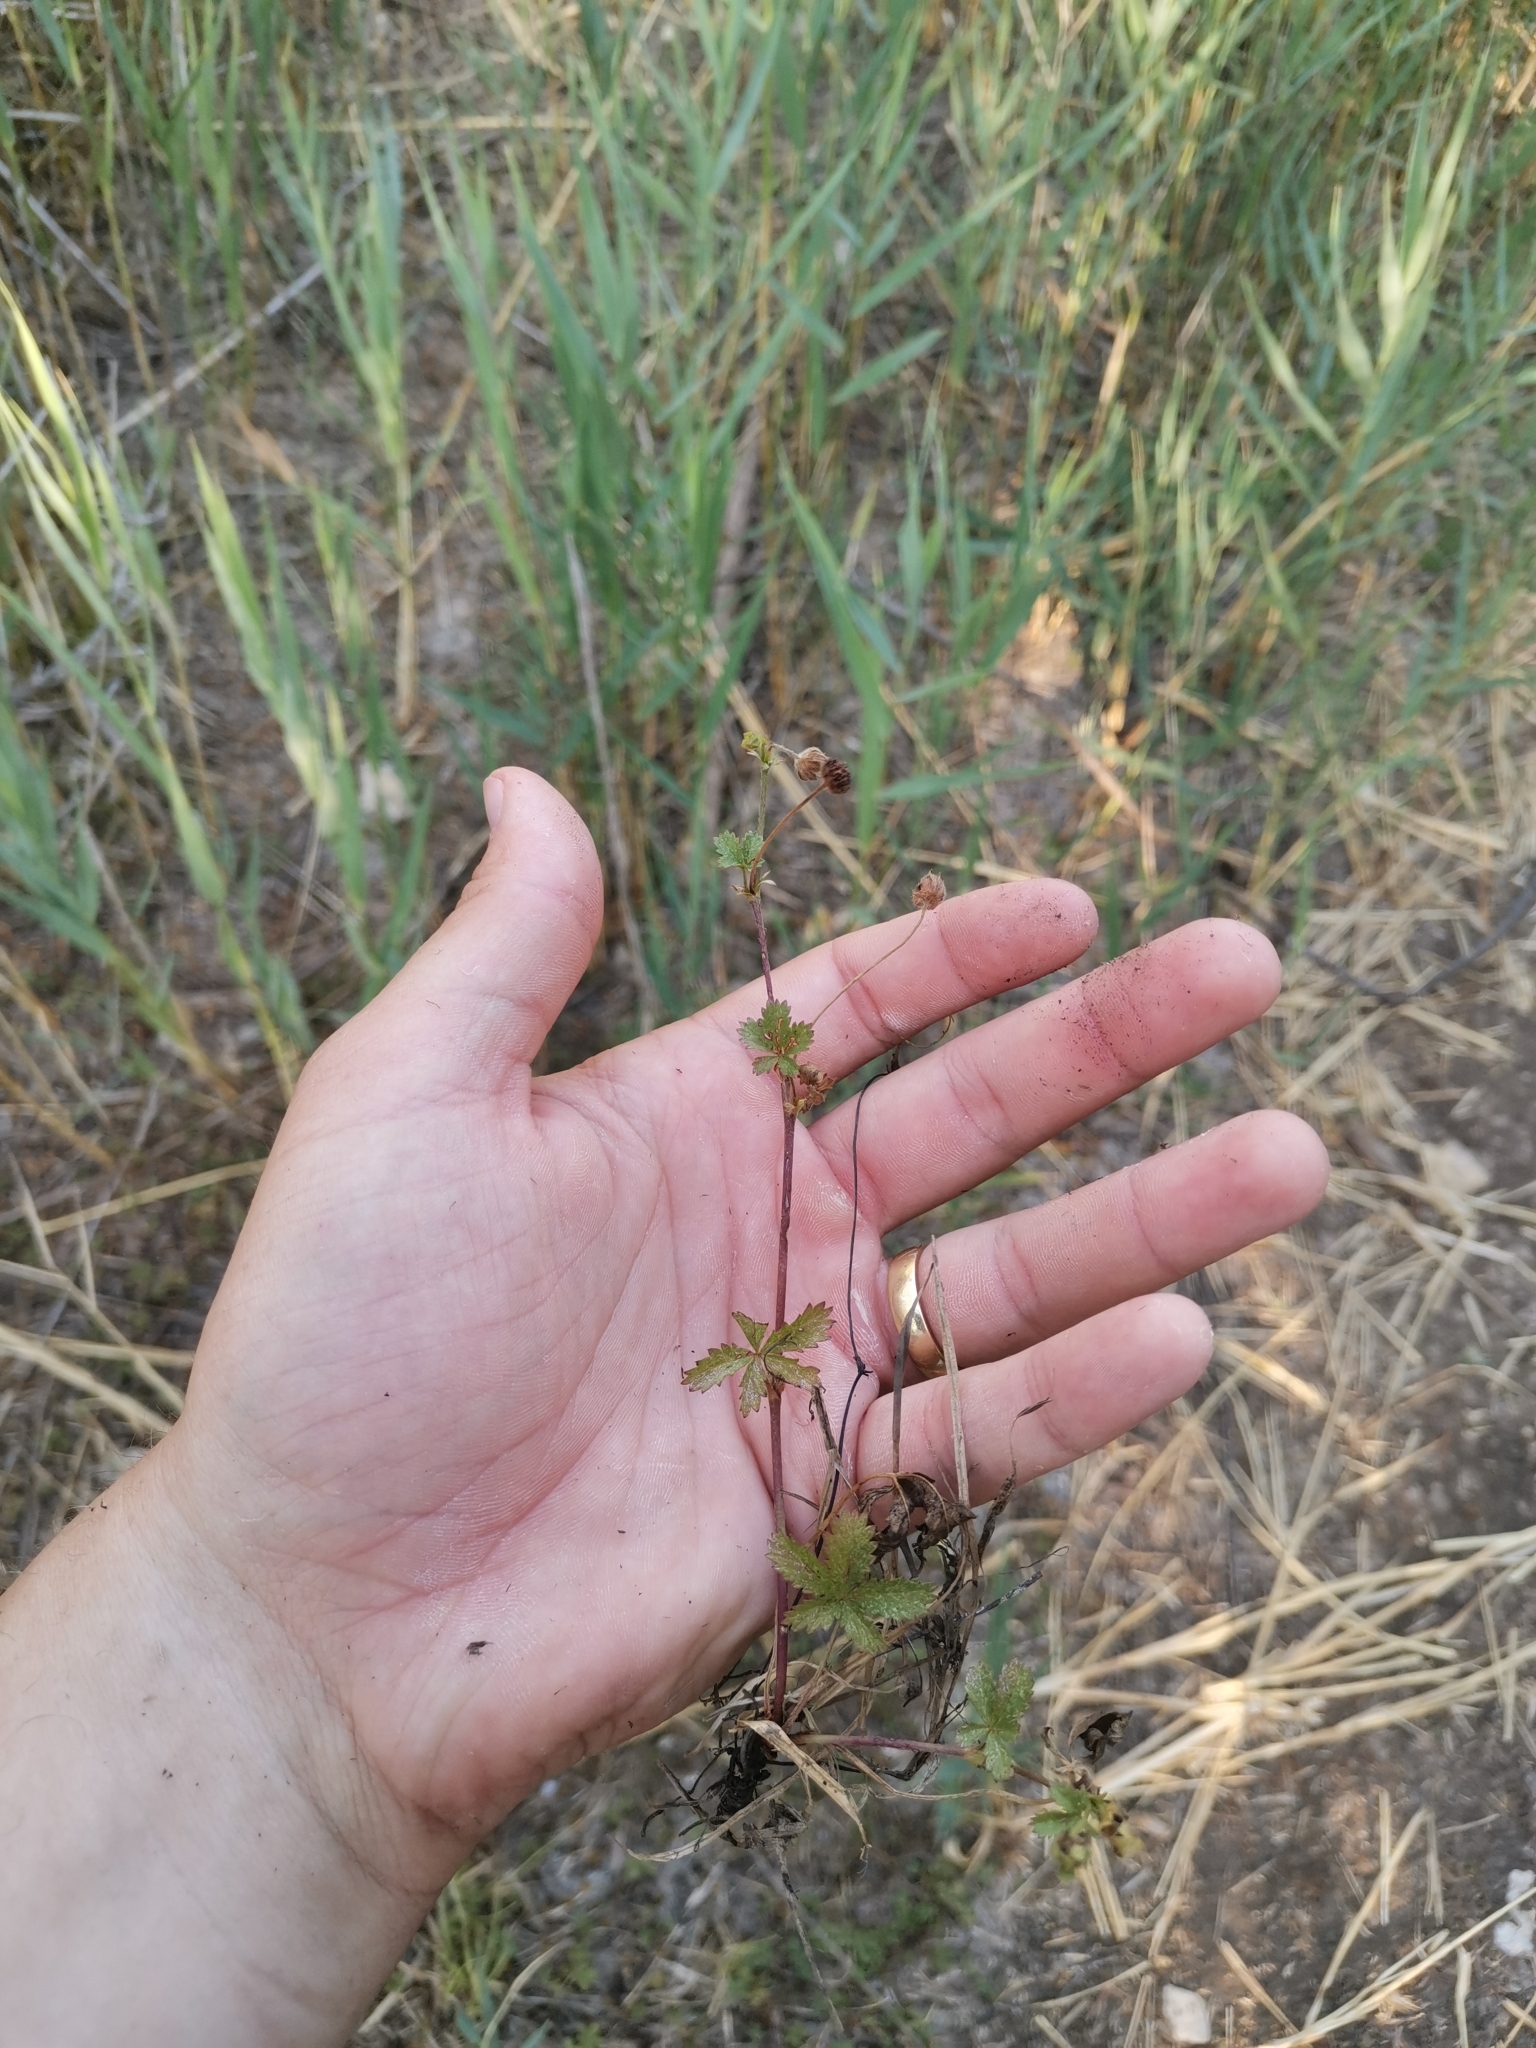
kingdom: Plantae
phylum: Tracheophyta
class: Magnoliopsida
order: Rosales
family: Rosaceae
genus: Potentilla
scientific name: Potentilla reptans
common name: Creeping cinquefoil
